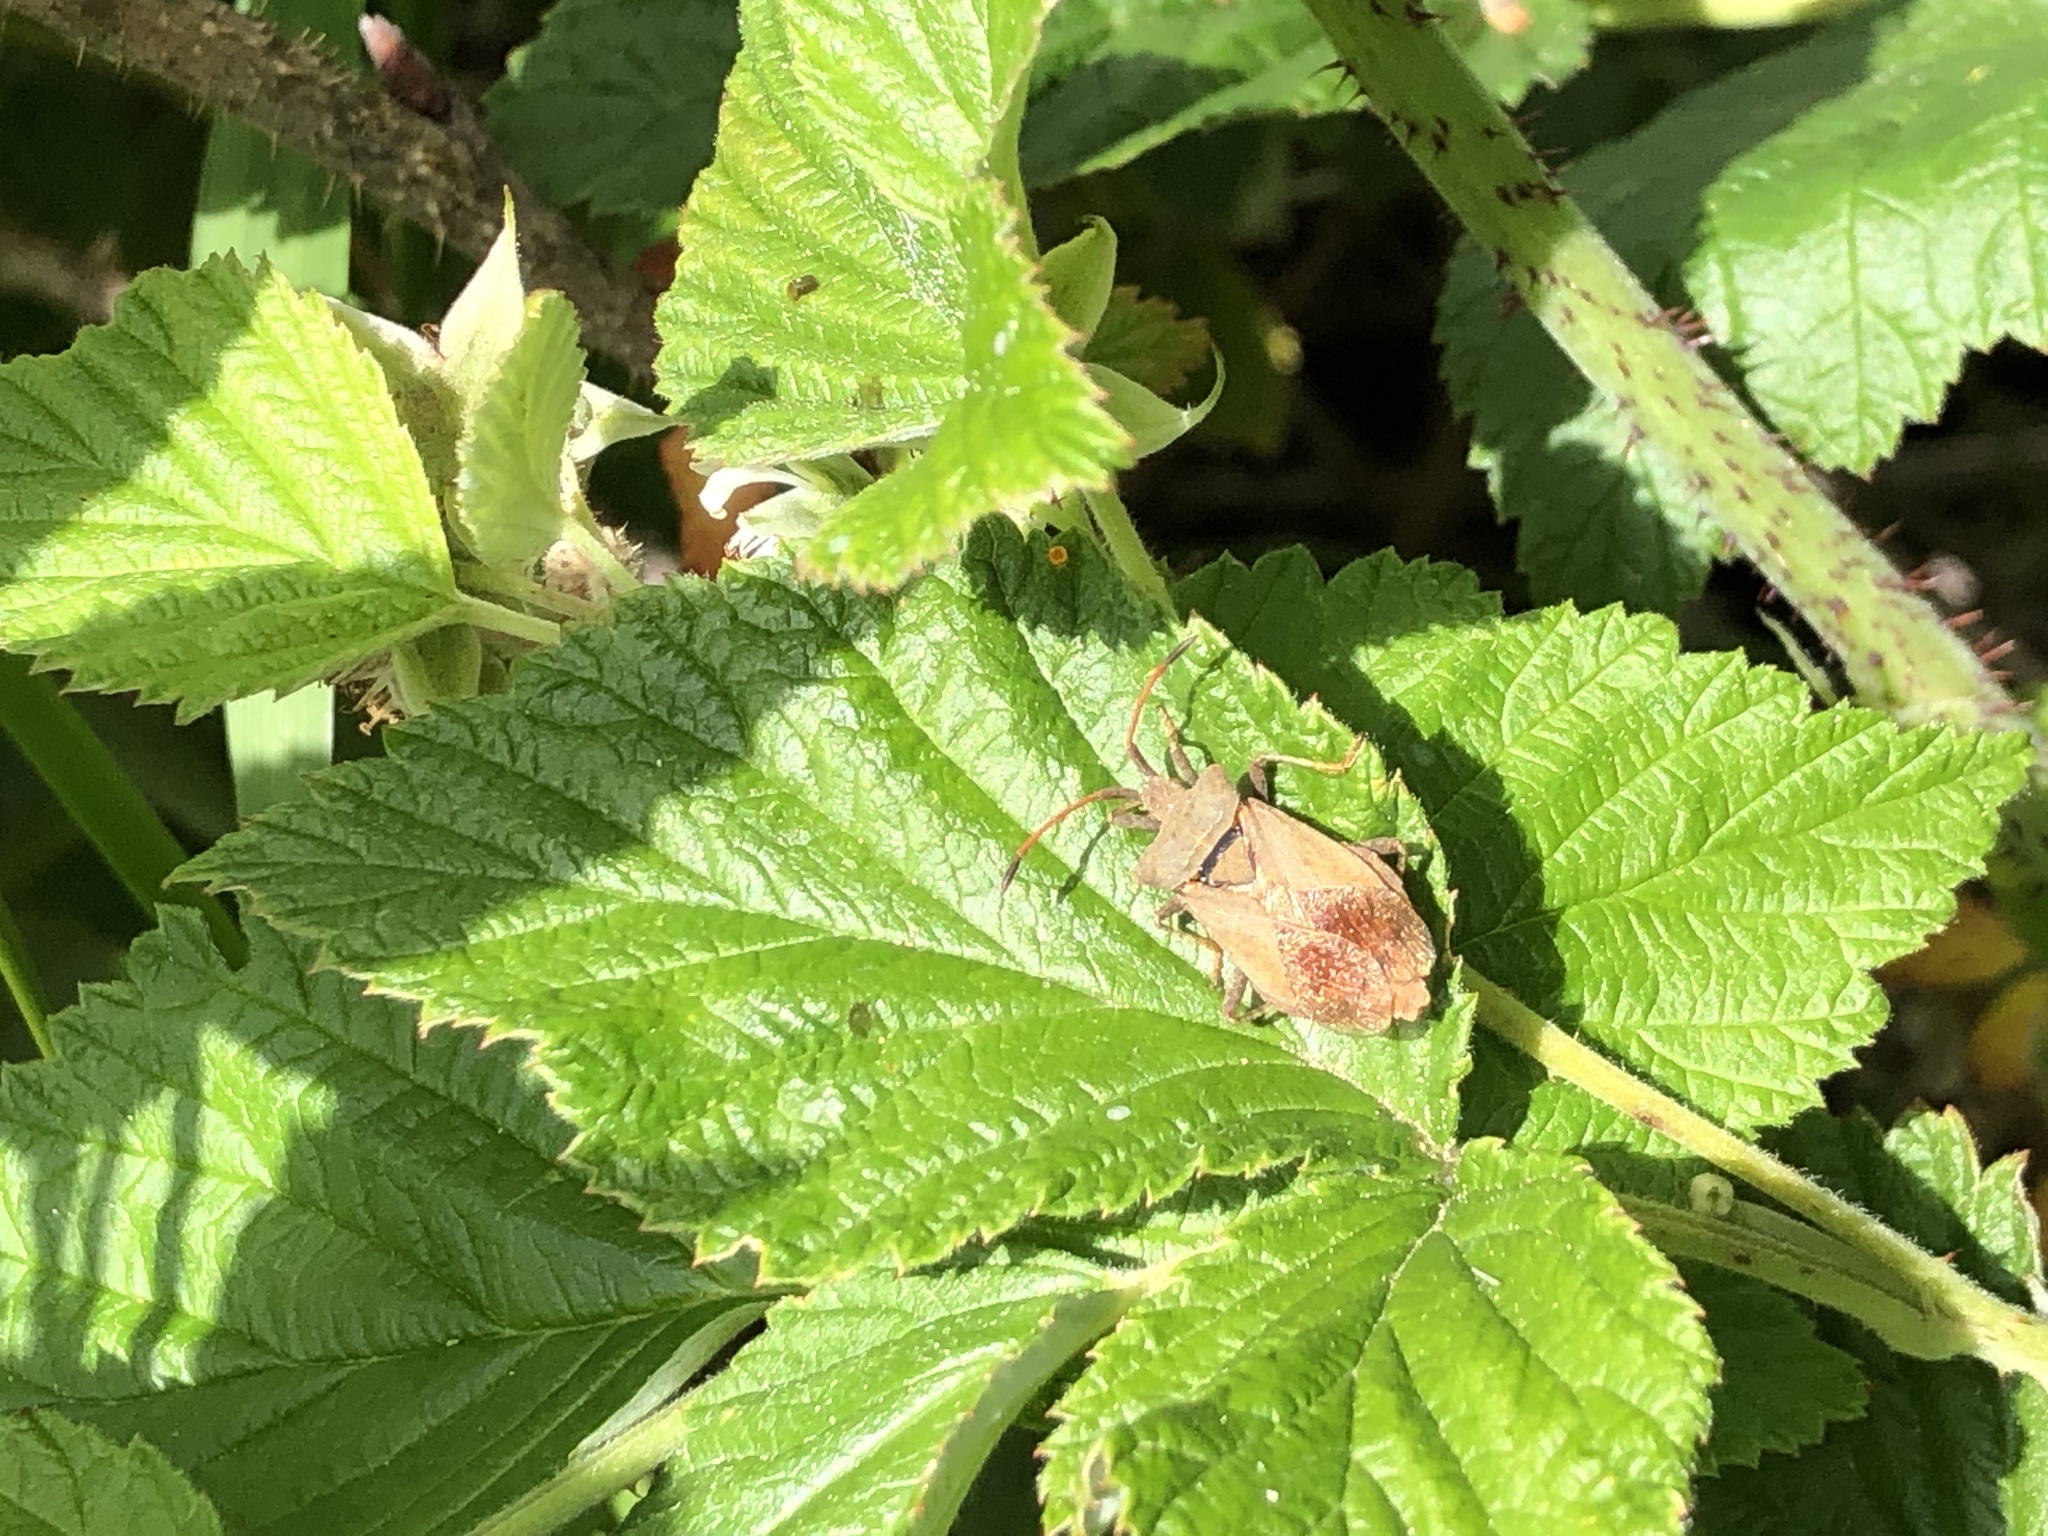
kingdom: Animalia
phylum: Arthropoda
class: Insecta
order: Hemiptera
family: Coreidae
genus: Coreus
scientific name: Coreus marginatus
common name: Dock bug
